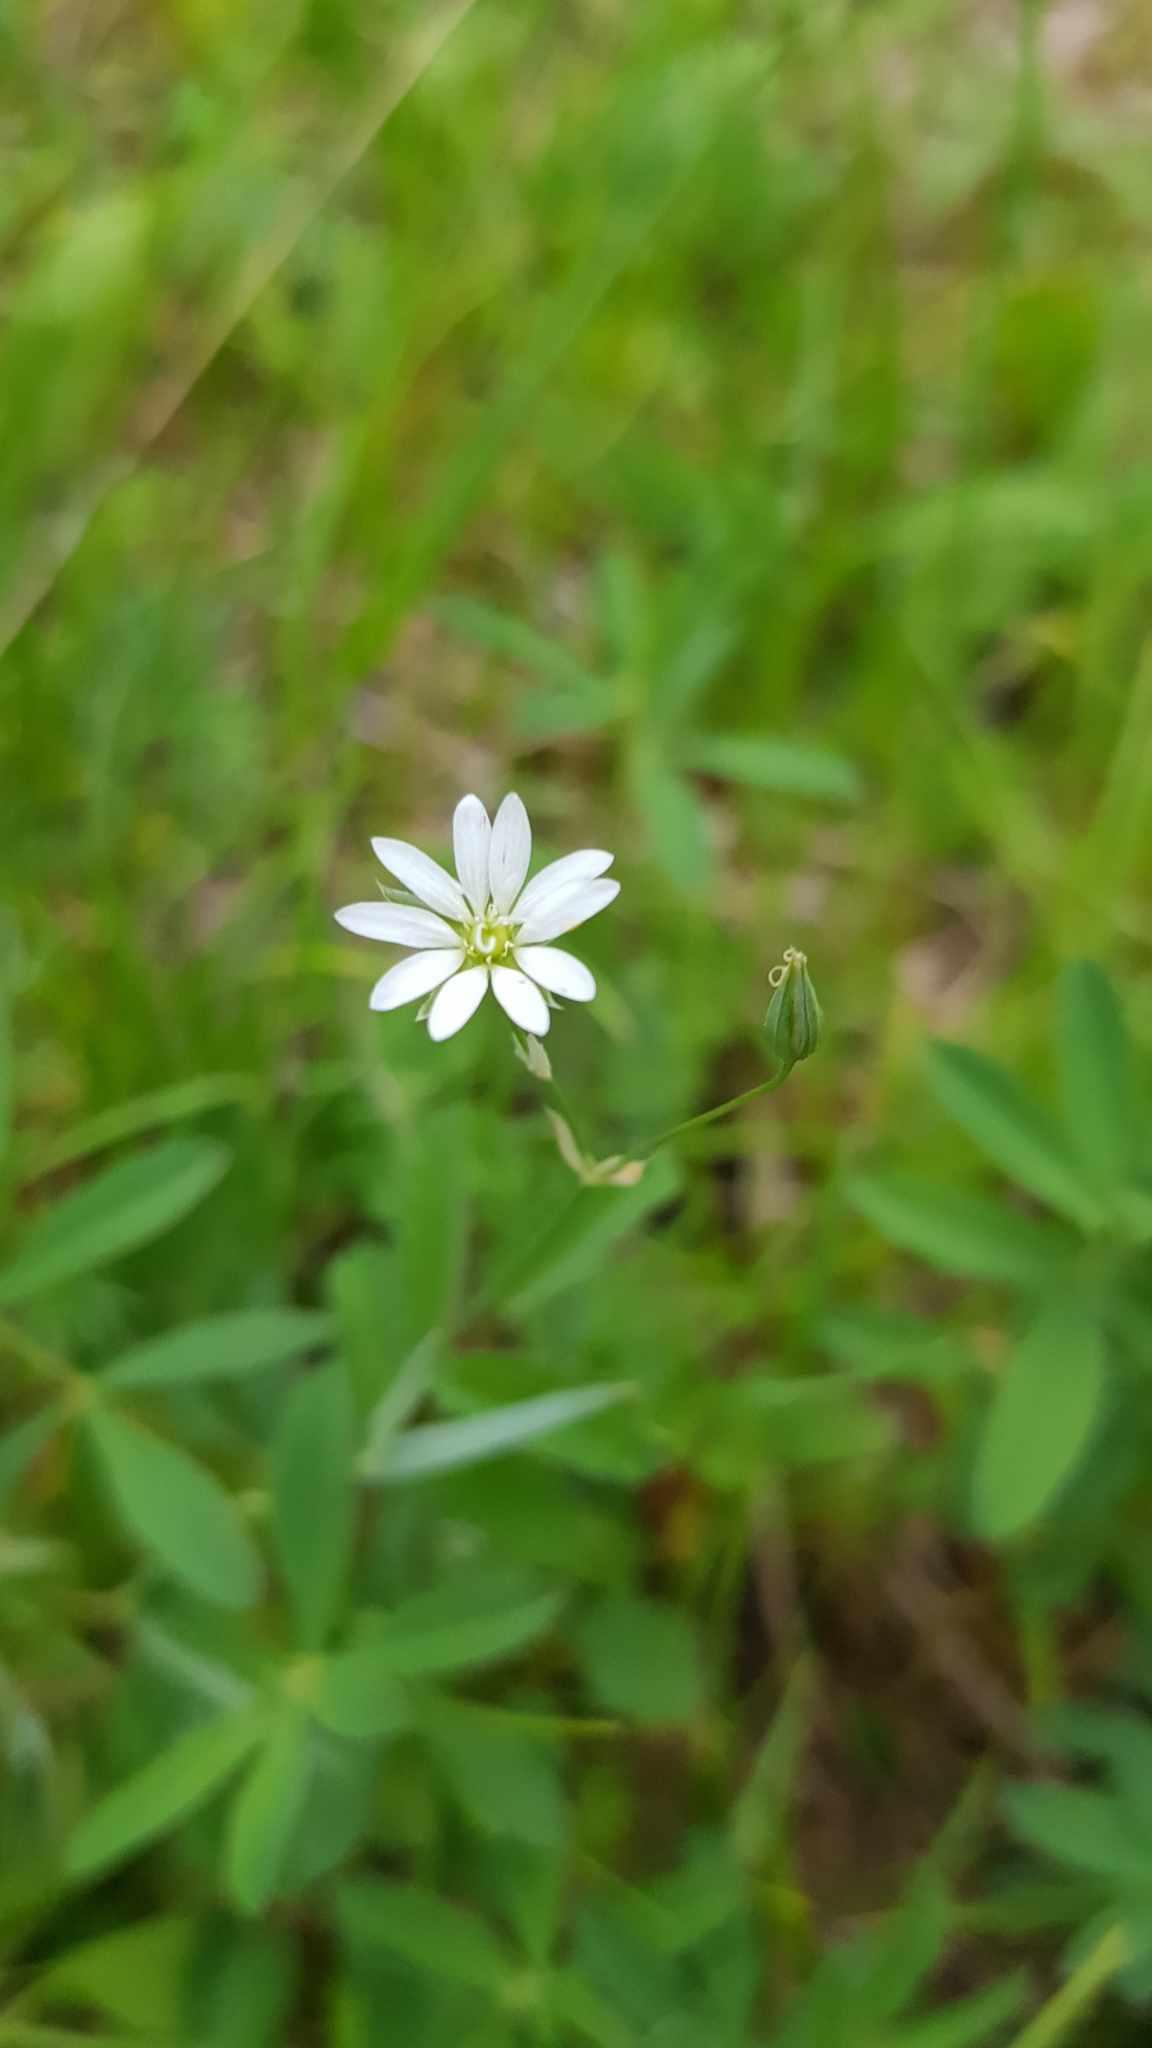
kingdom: Plantae
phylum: Tracheophyta
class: Magnoliopsida
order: Caryophyllales
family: Caryophyllaceae
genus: Stellaria
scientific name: Stellaria graminea
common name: Grass-like starwort
